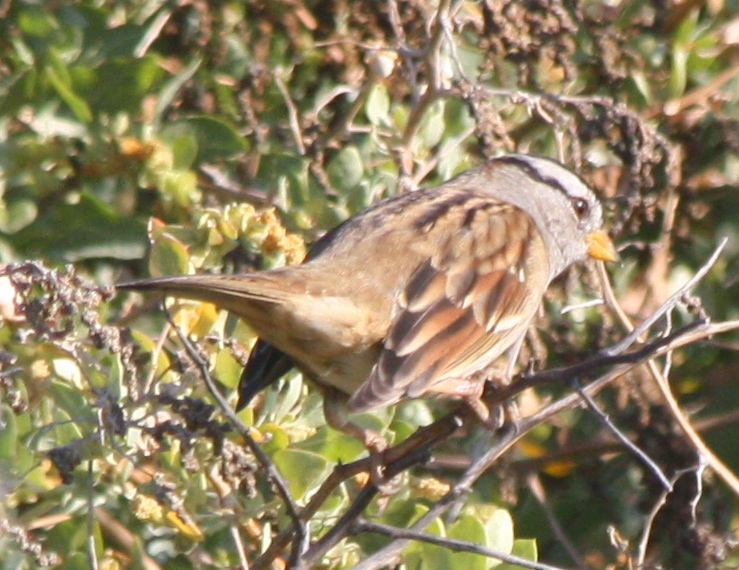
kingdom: Animalia
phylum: Chordata
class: Aves
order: Passeriformes
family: Passerellidae
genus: Zonotrichia
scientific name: Zonotrichia leucophrys
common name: White-crowned sparrow
